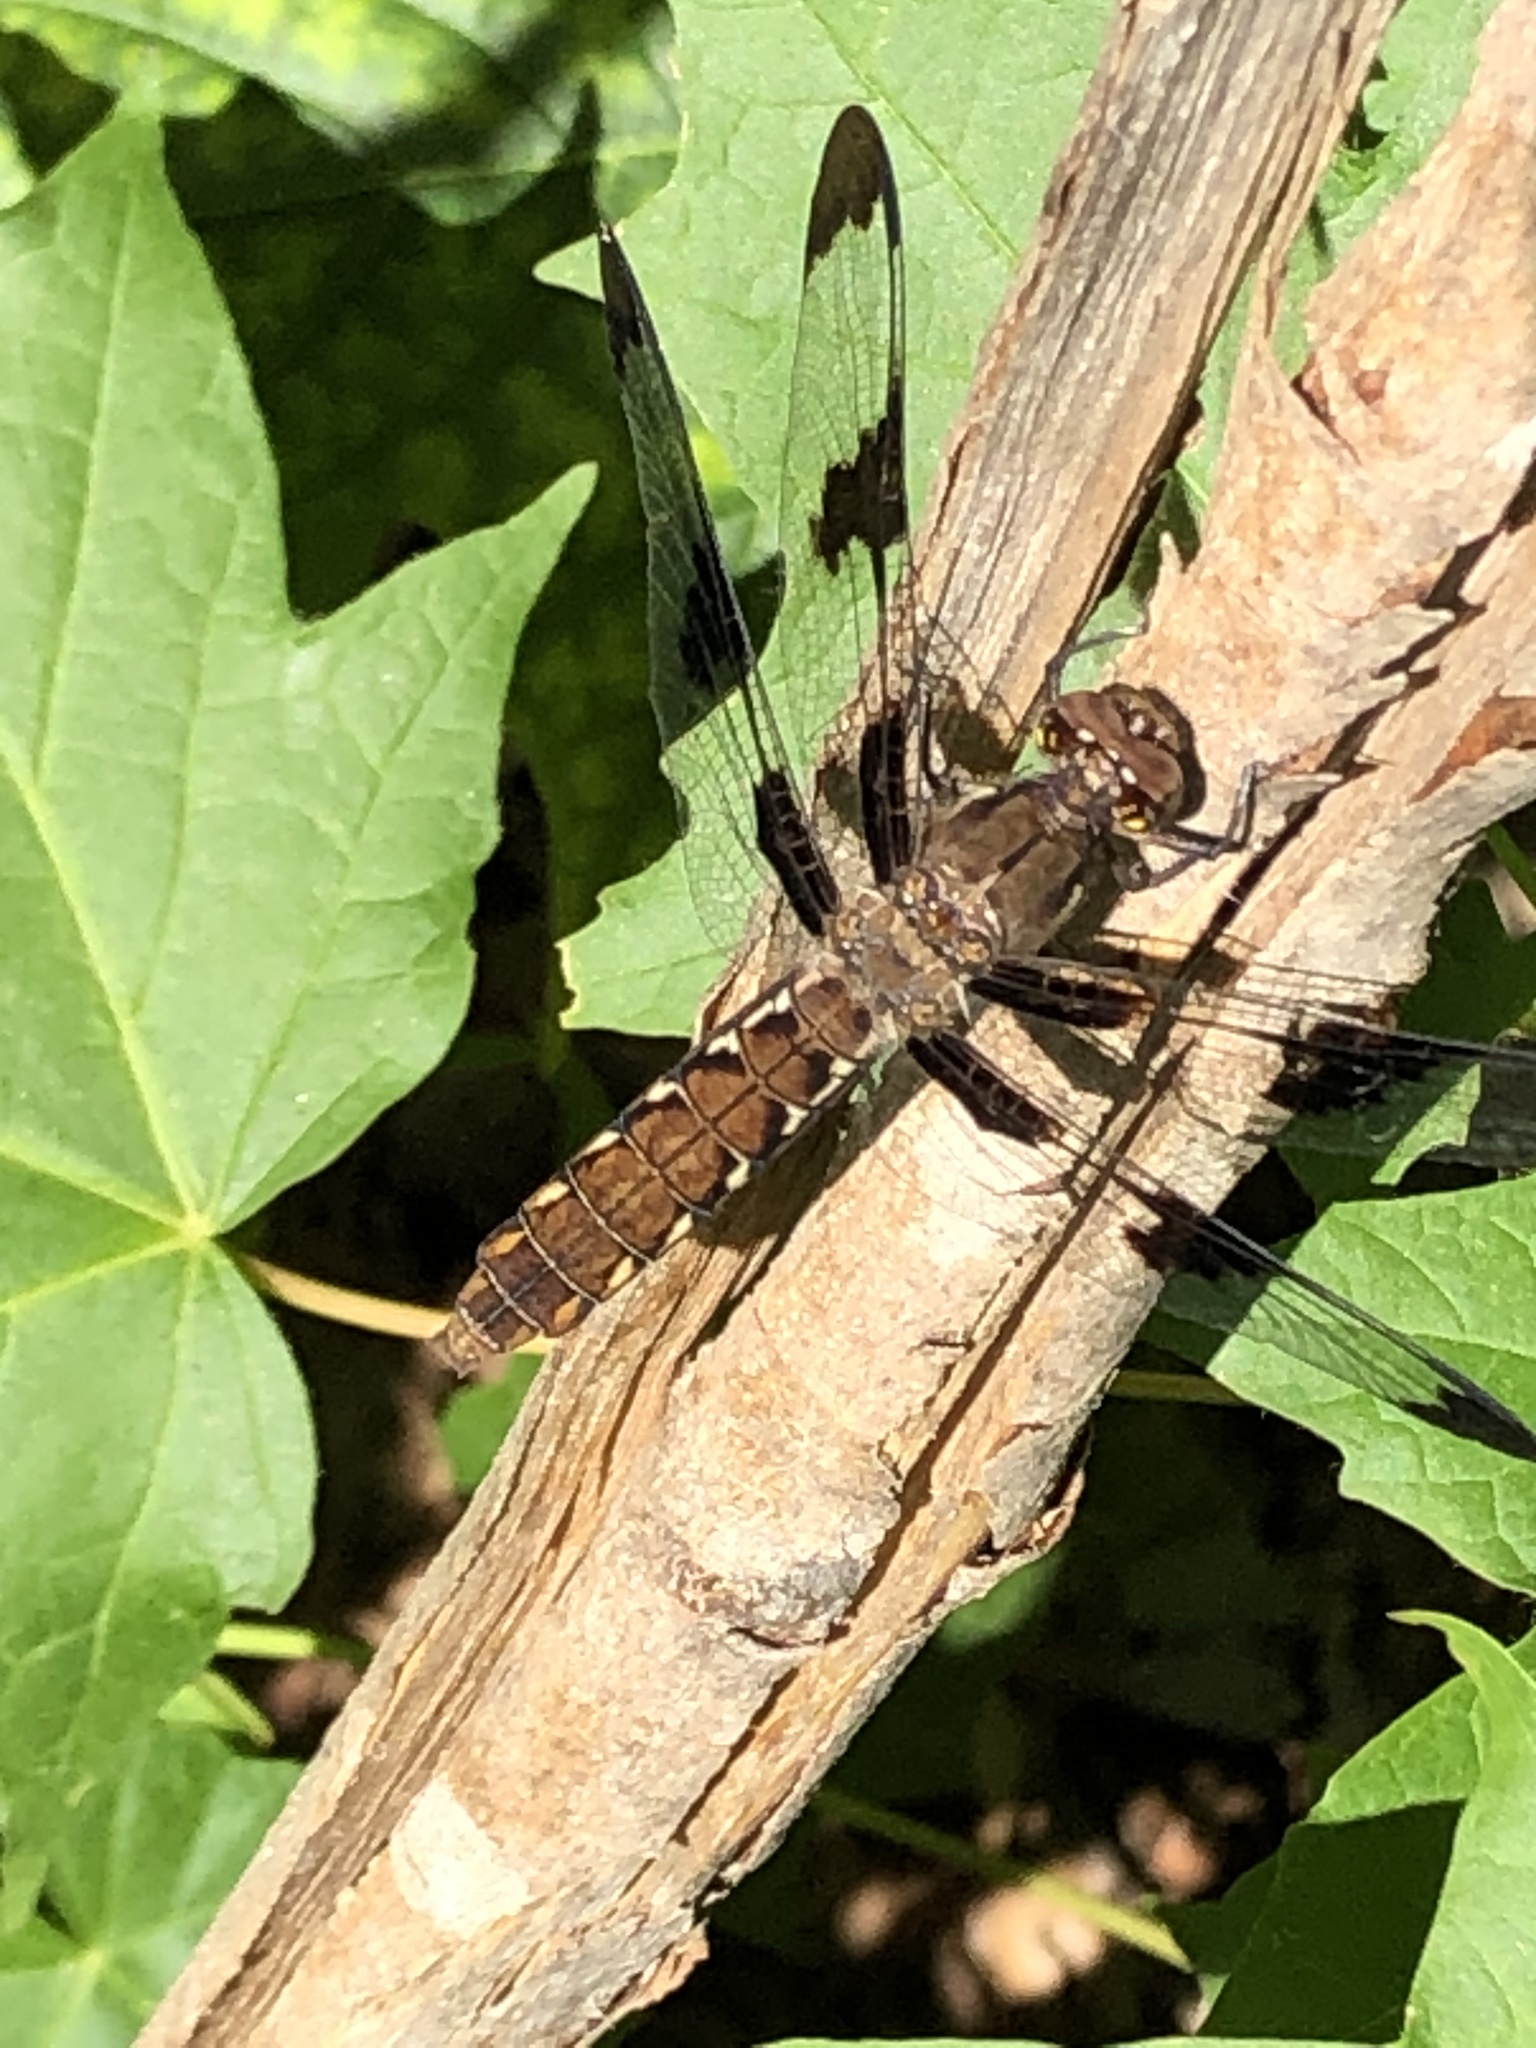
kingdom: Animalia
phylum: Arthropoda
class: Insecta
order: Odonata
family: Libellulidae
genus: Plathemis
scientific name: Plathemis lydia
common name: Common whitetail
